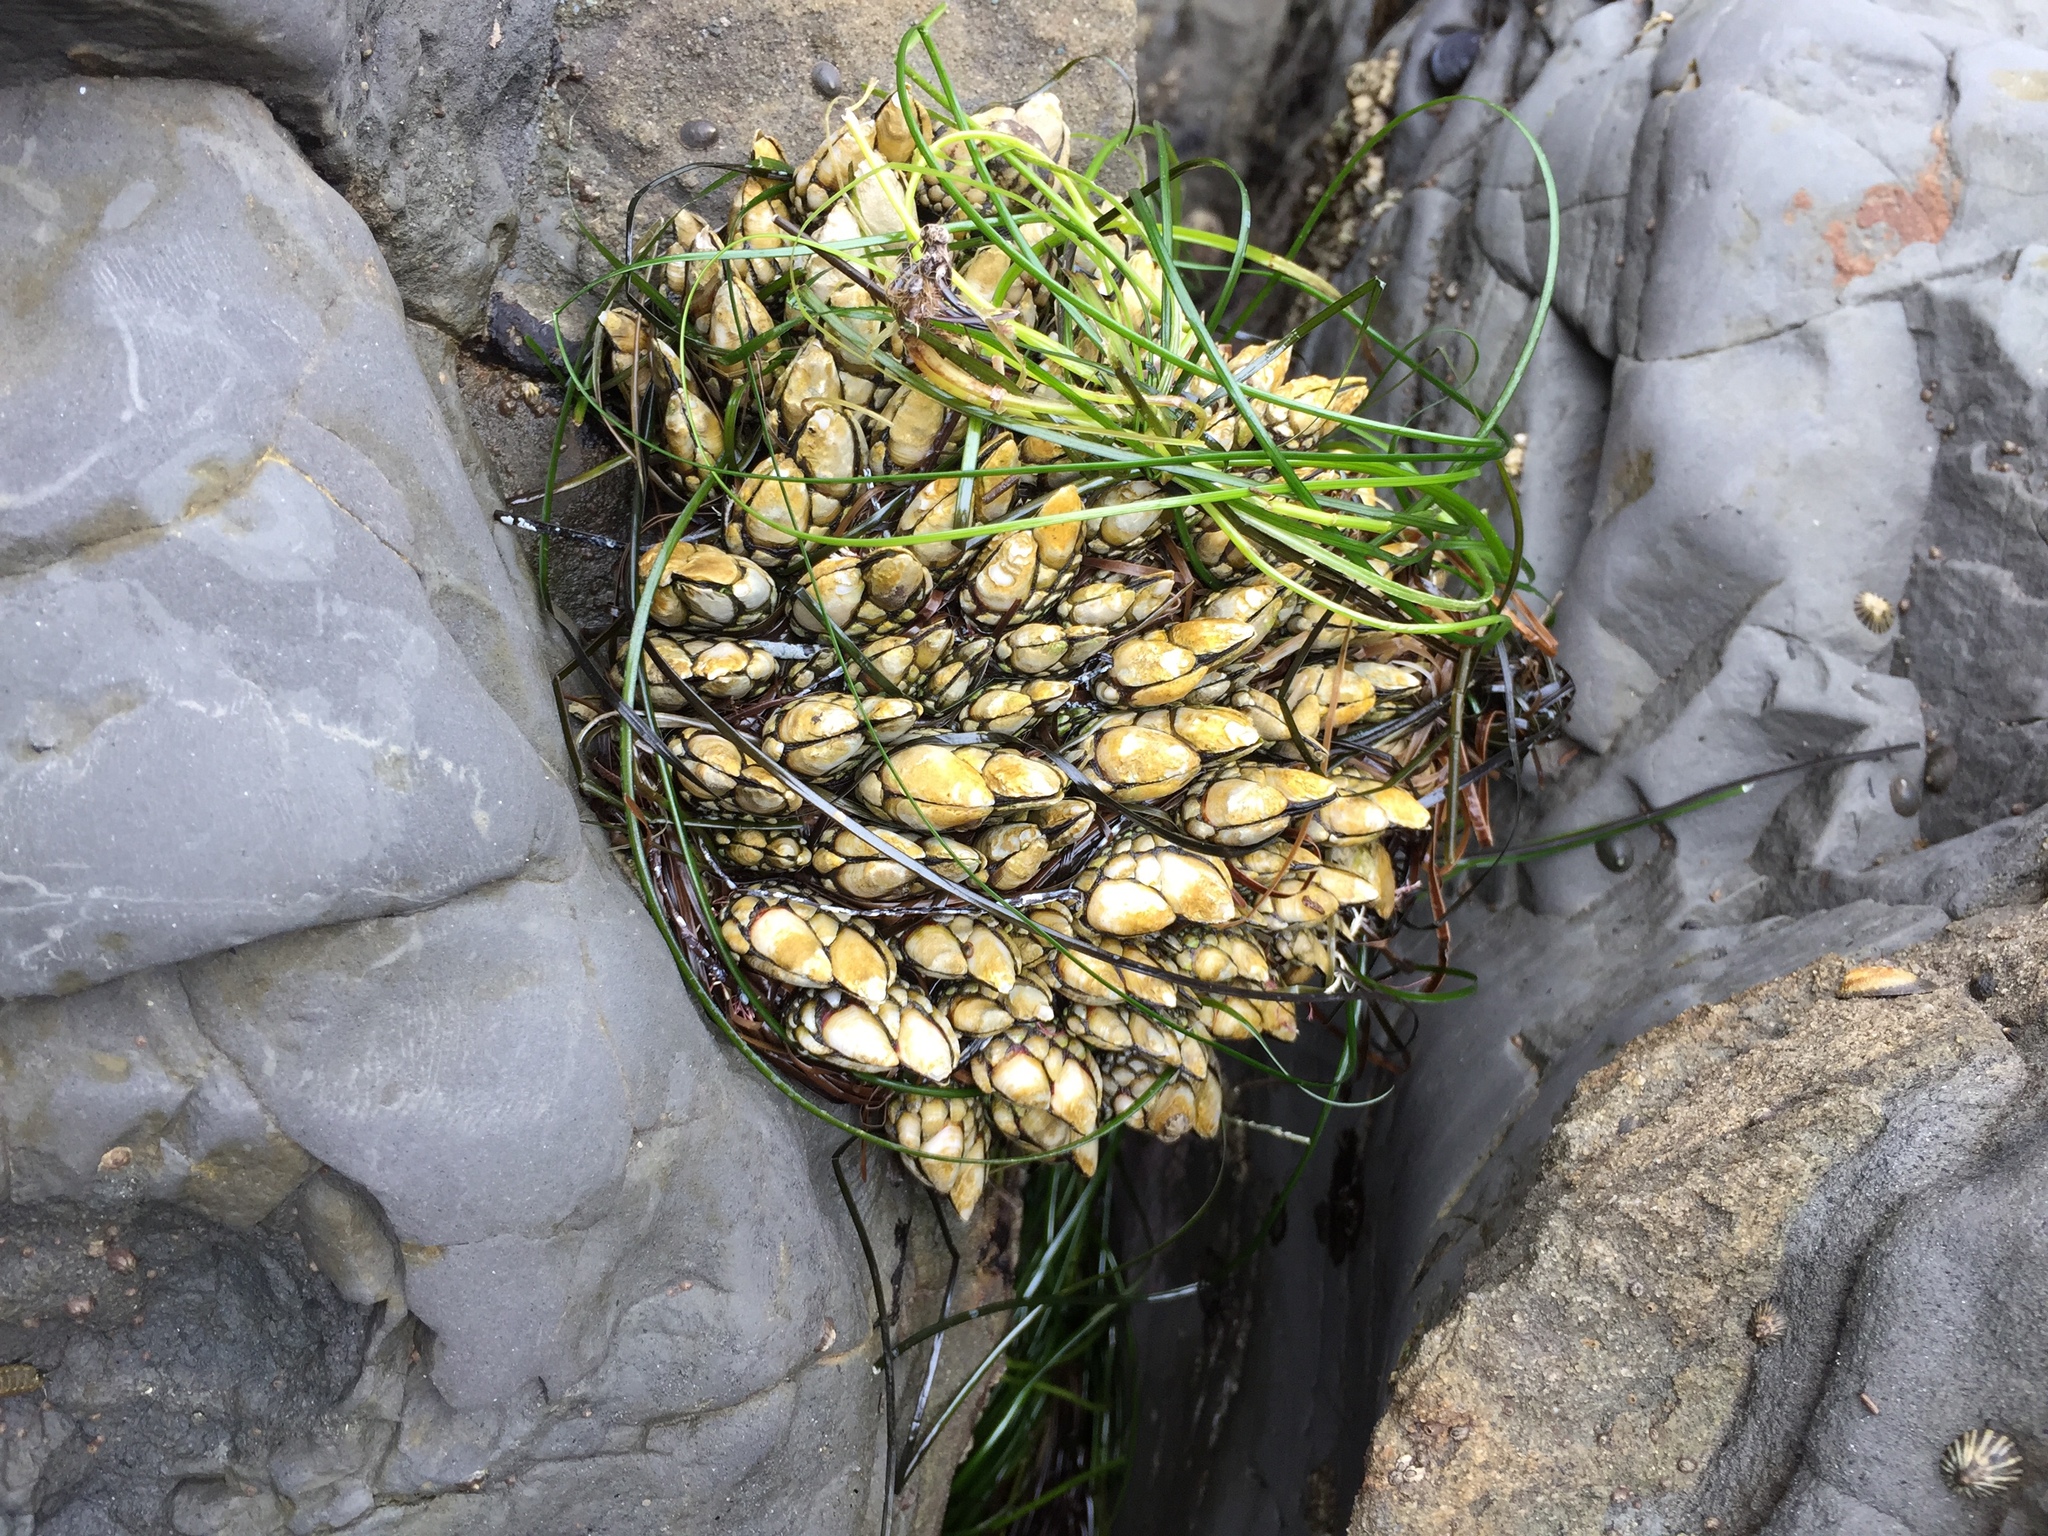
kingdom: Animalia
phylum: Arthropoda
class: Maxillopoda
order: Pedunculata
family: Pollicipedidae
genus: Pollicipes
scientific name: Pollicipes polymerus
